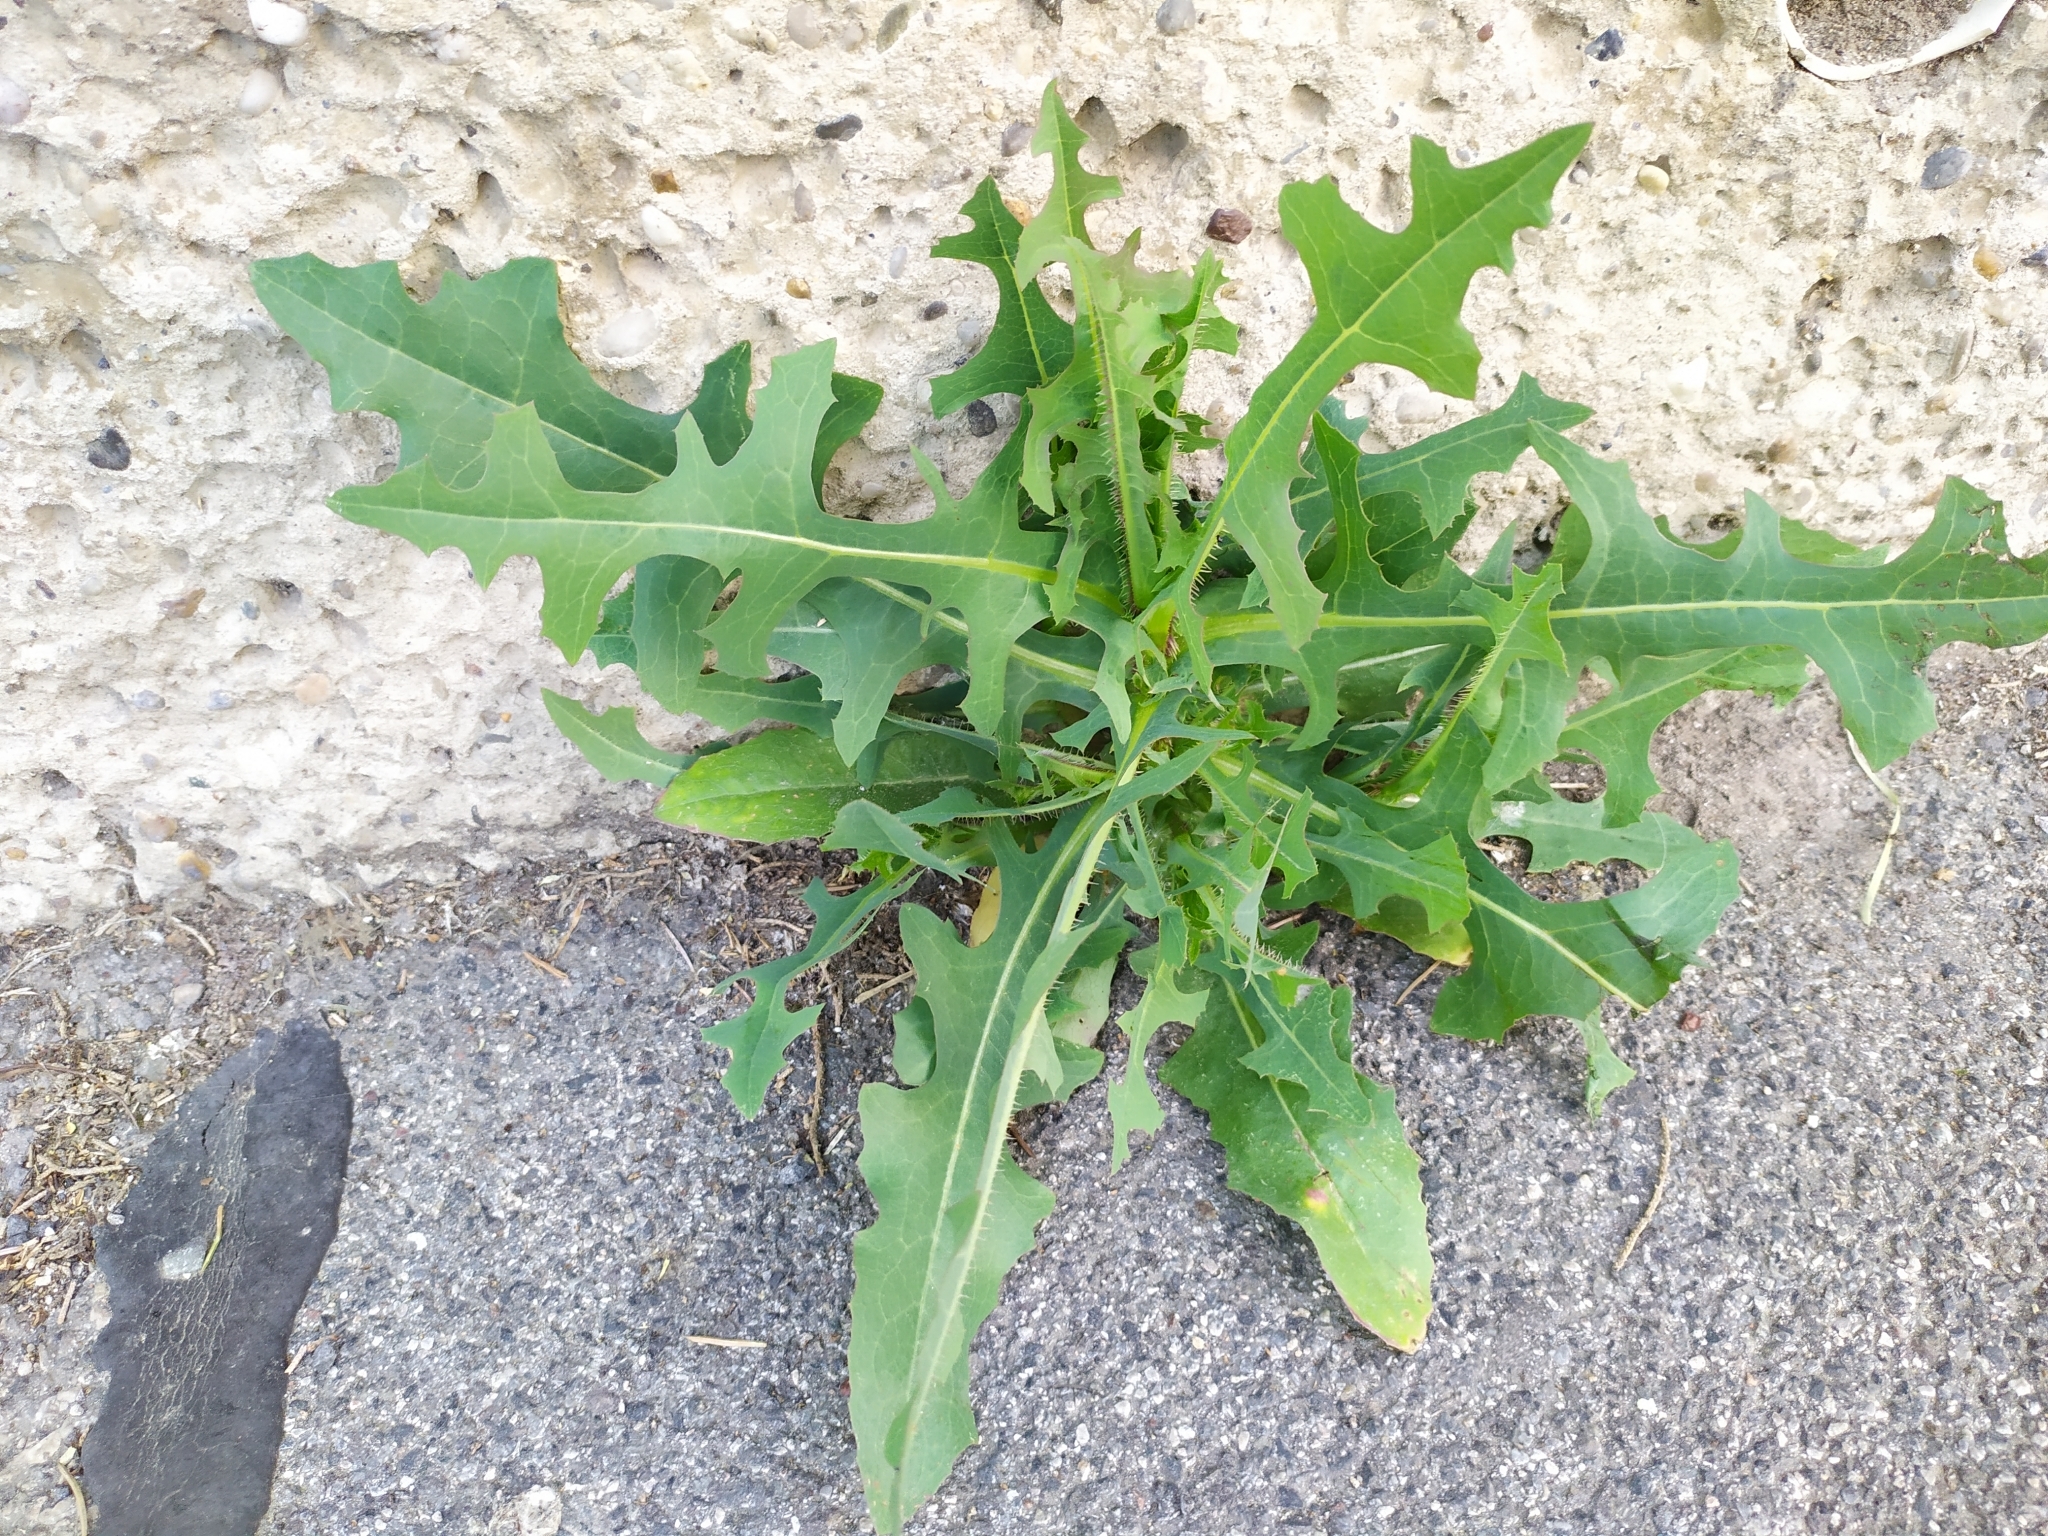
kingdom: Plantae
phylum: Tracheophyta
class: Magnoliopsida
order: Asterales
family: Asteraceae
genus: Lactuca
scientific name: Lactuca serriola
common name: Prickly lettuce
